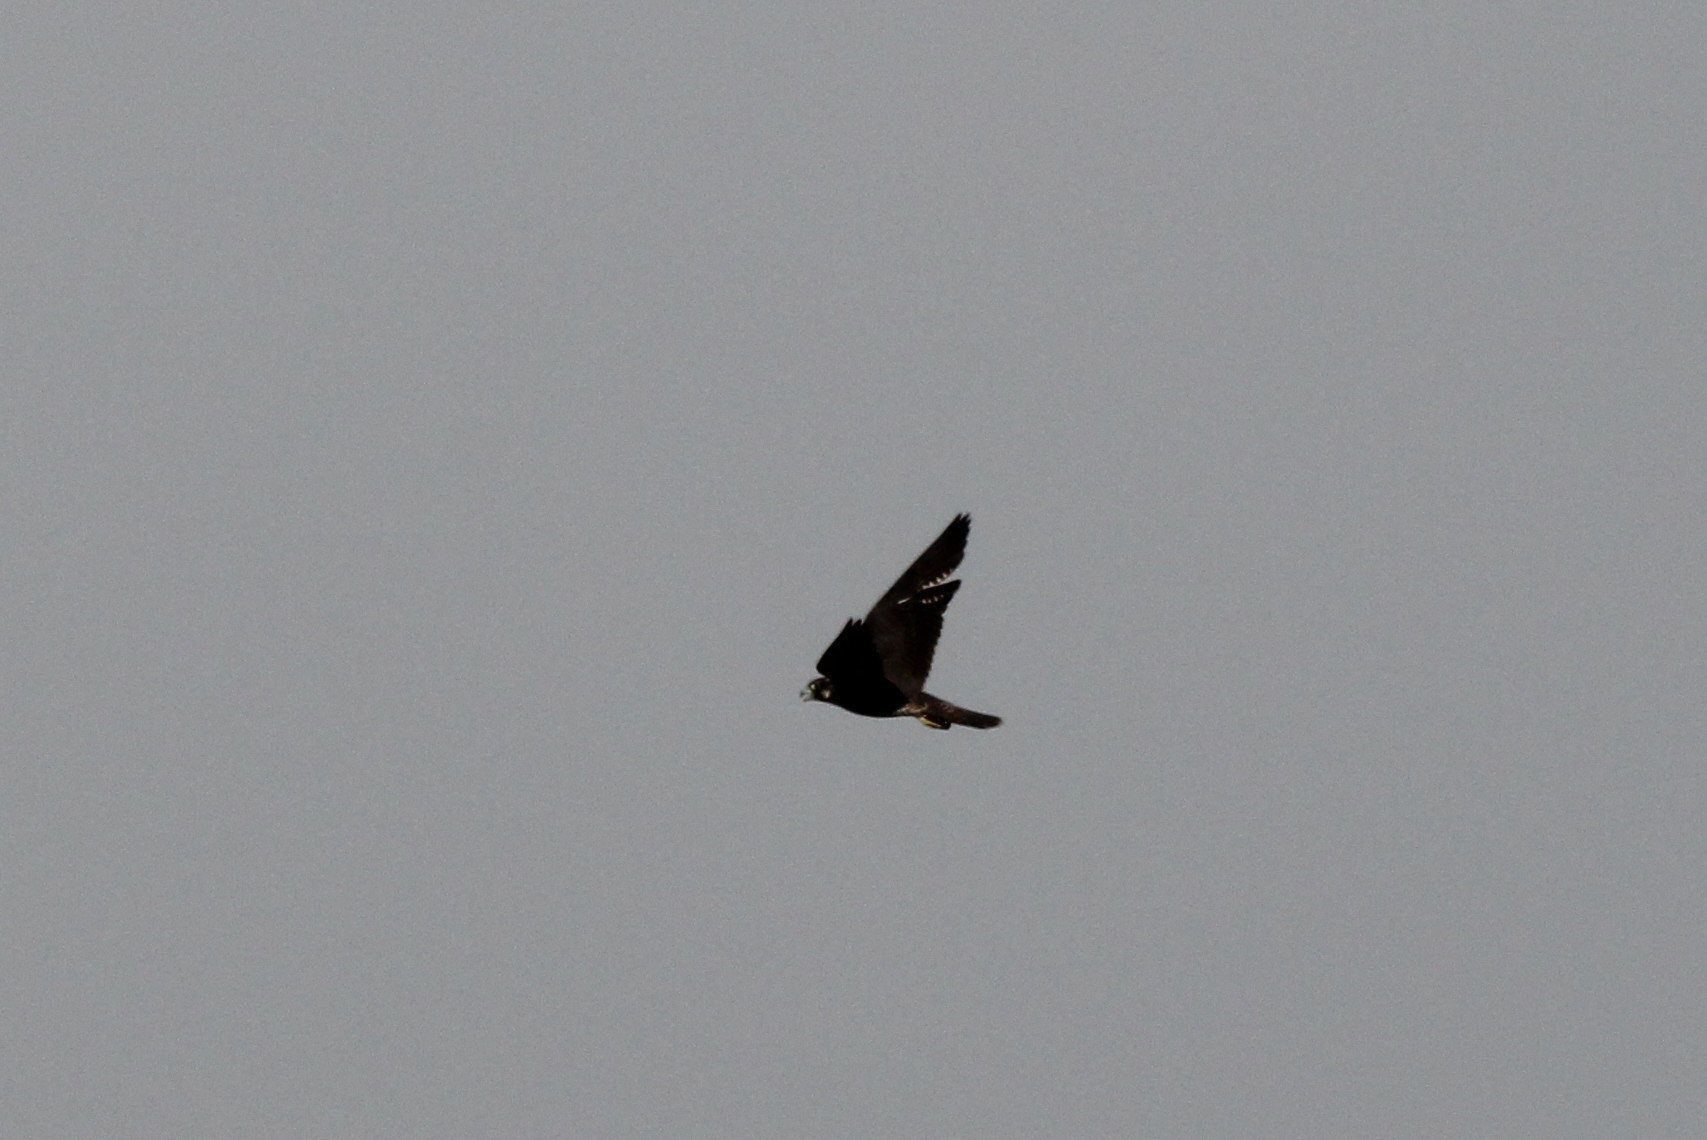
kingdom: Animalia
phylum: Chordata
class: Aves
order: Falconiformes
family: Falconidae
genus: Falco
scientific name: Falco peregrinus
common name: Peregrine falcon
